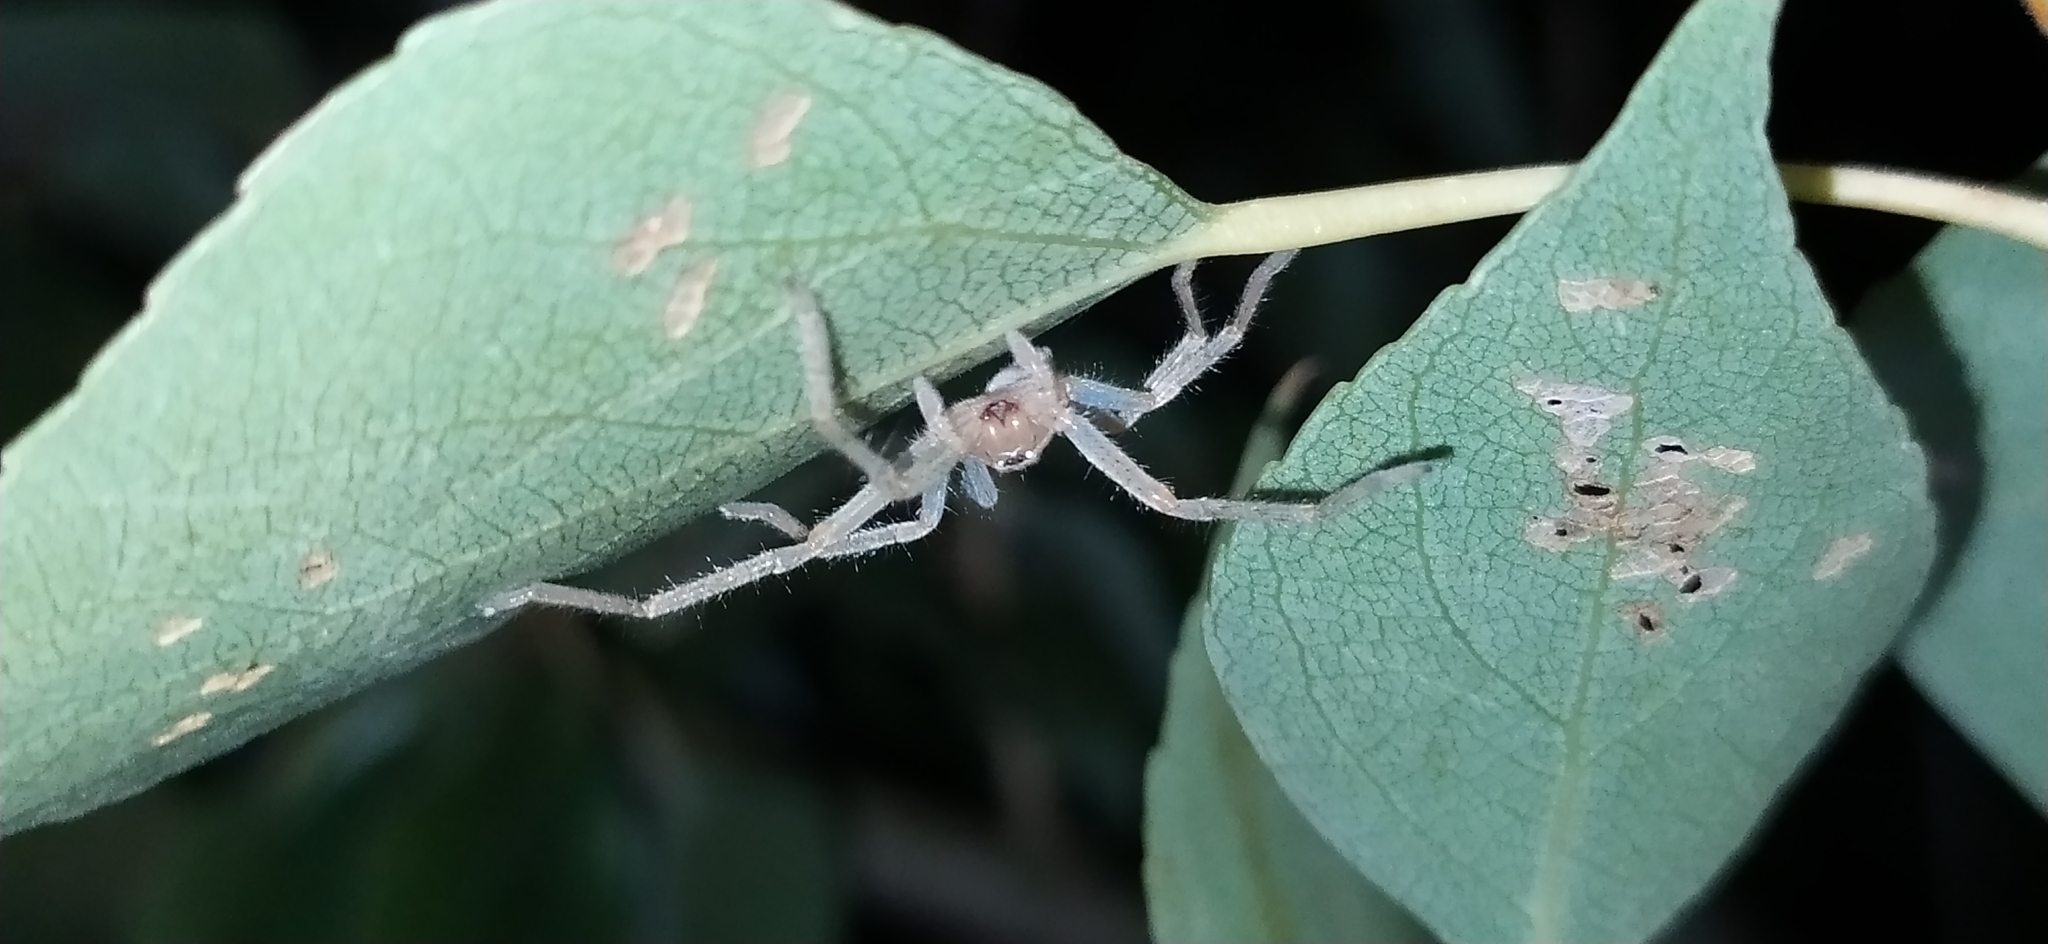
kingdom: Animalia
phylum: Arthropoda
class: Arachnida
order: Araneae
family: Sparassidae
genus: Olios
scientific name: Olios sericeus
